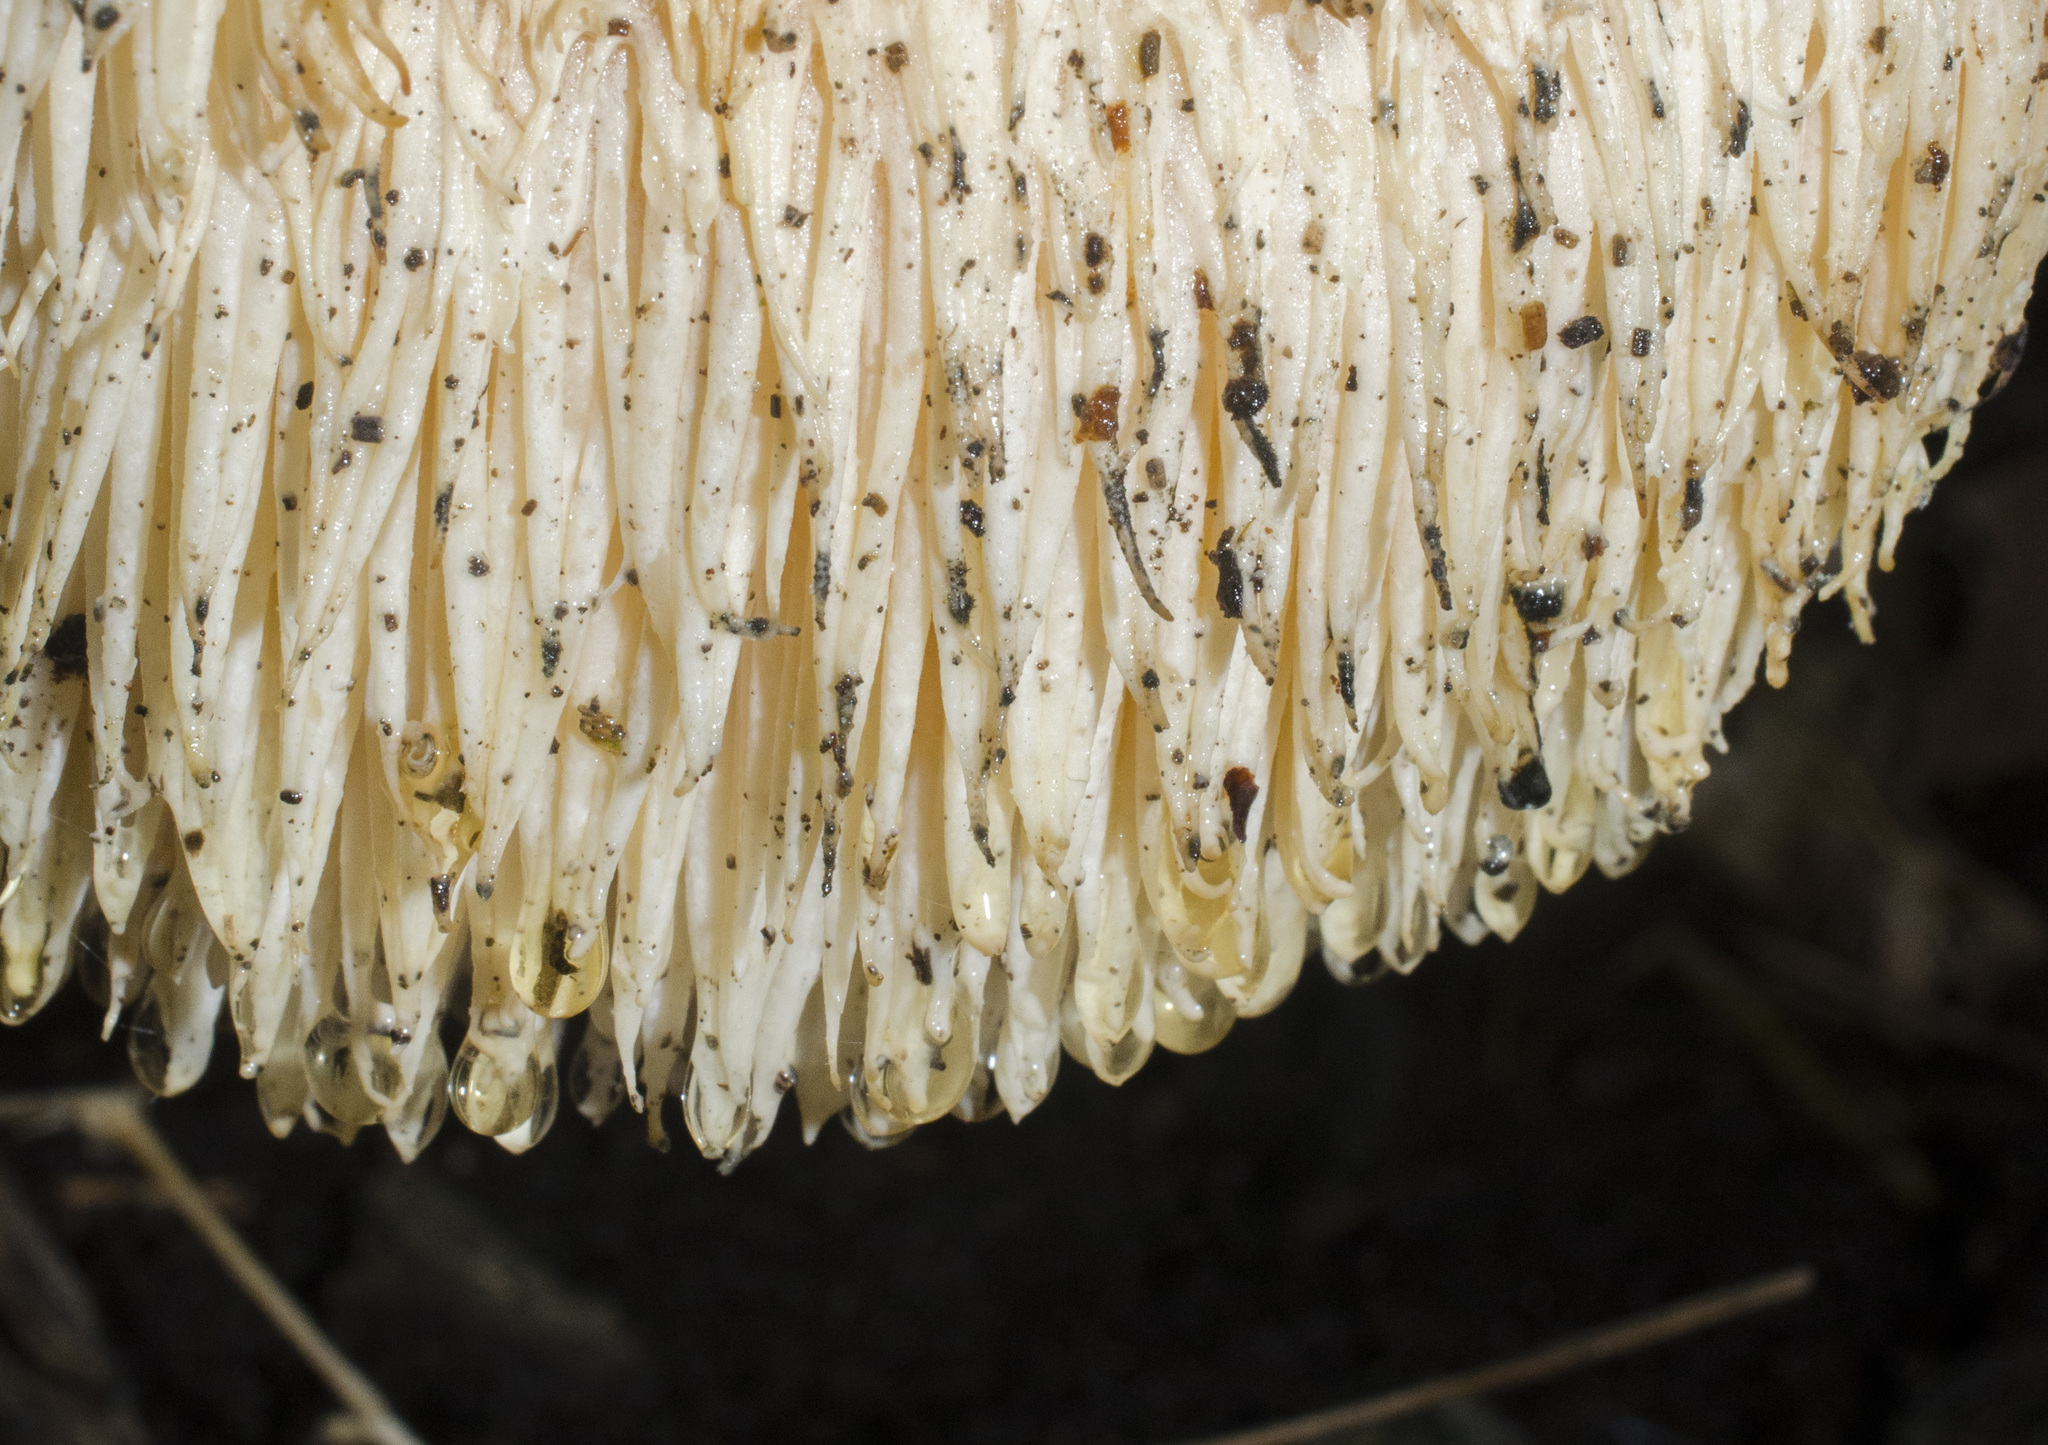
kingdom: Fungi
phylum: Basidiomycota
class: Agaricomycetes
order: Russulales
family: Hericiaceae
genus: Hericium
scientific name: Hericium erinaceus
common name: Bearded tooth
